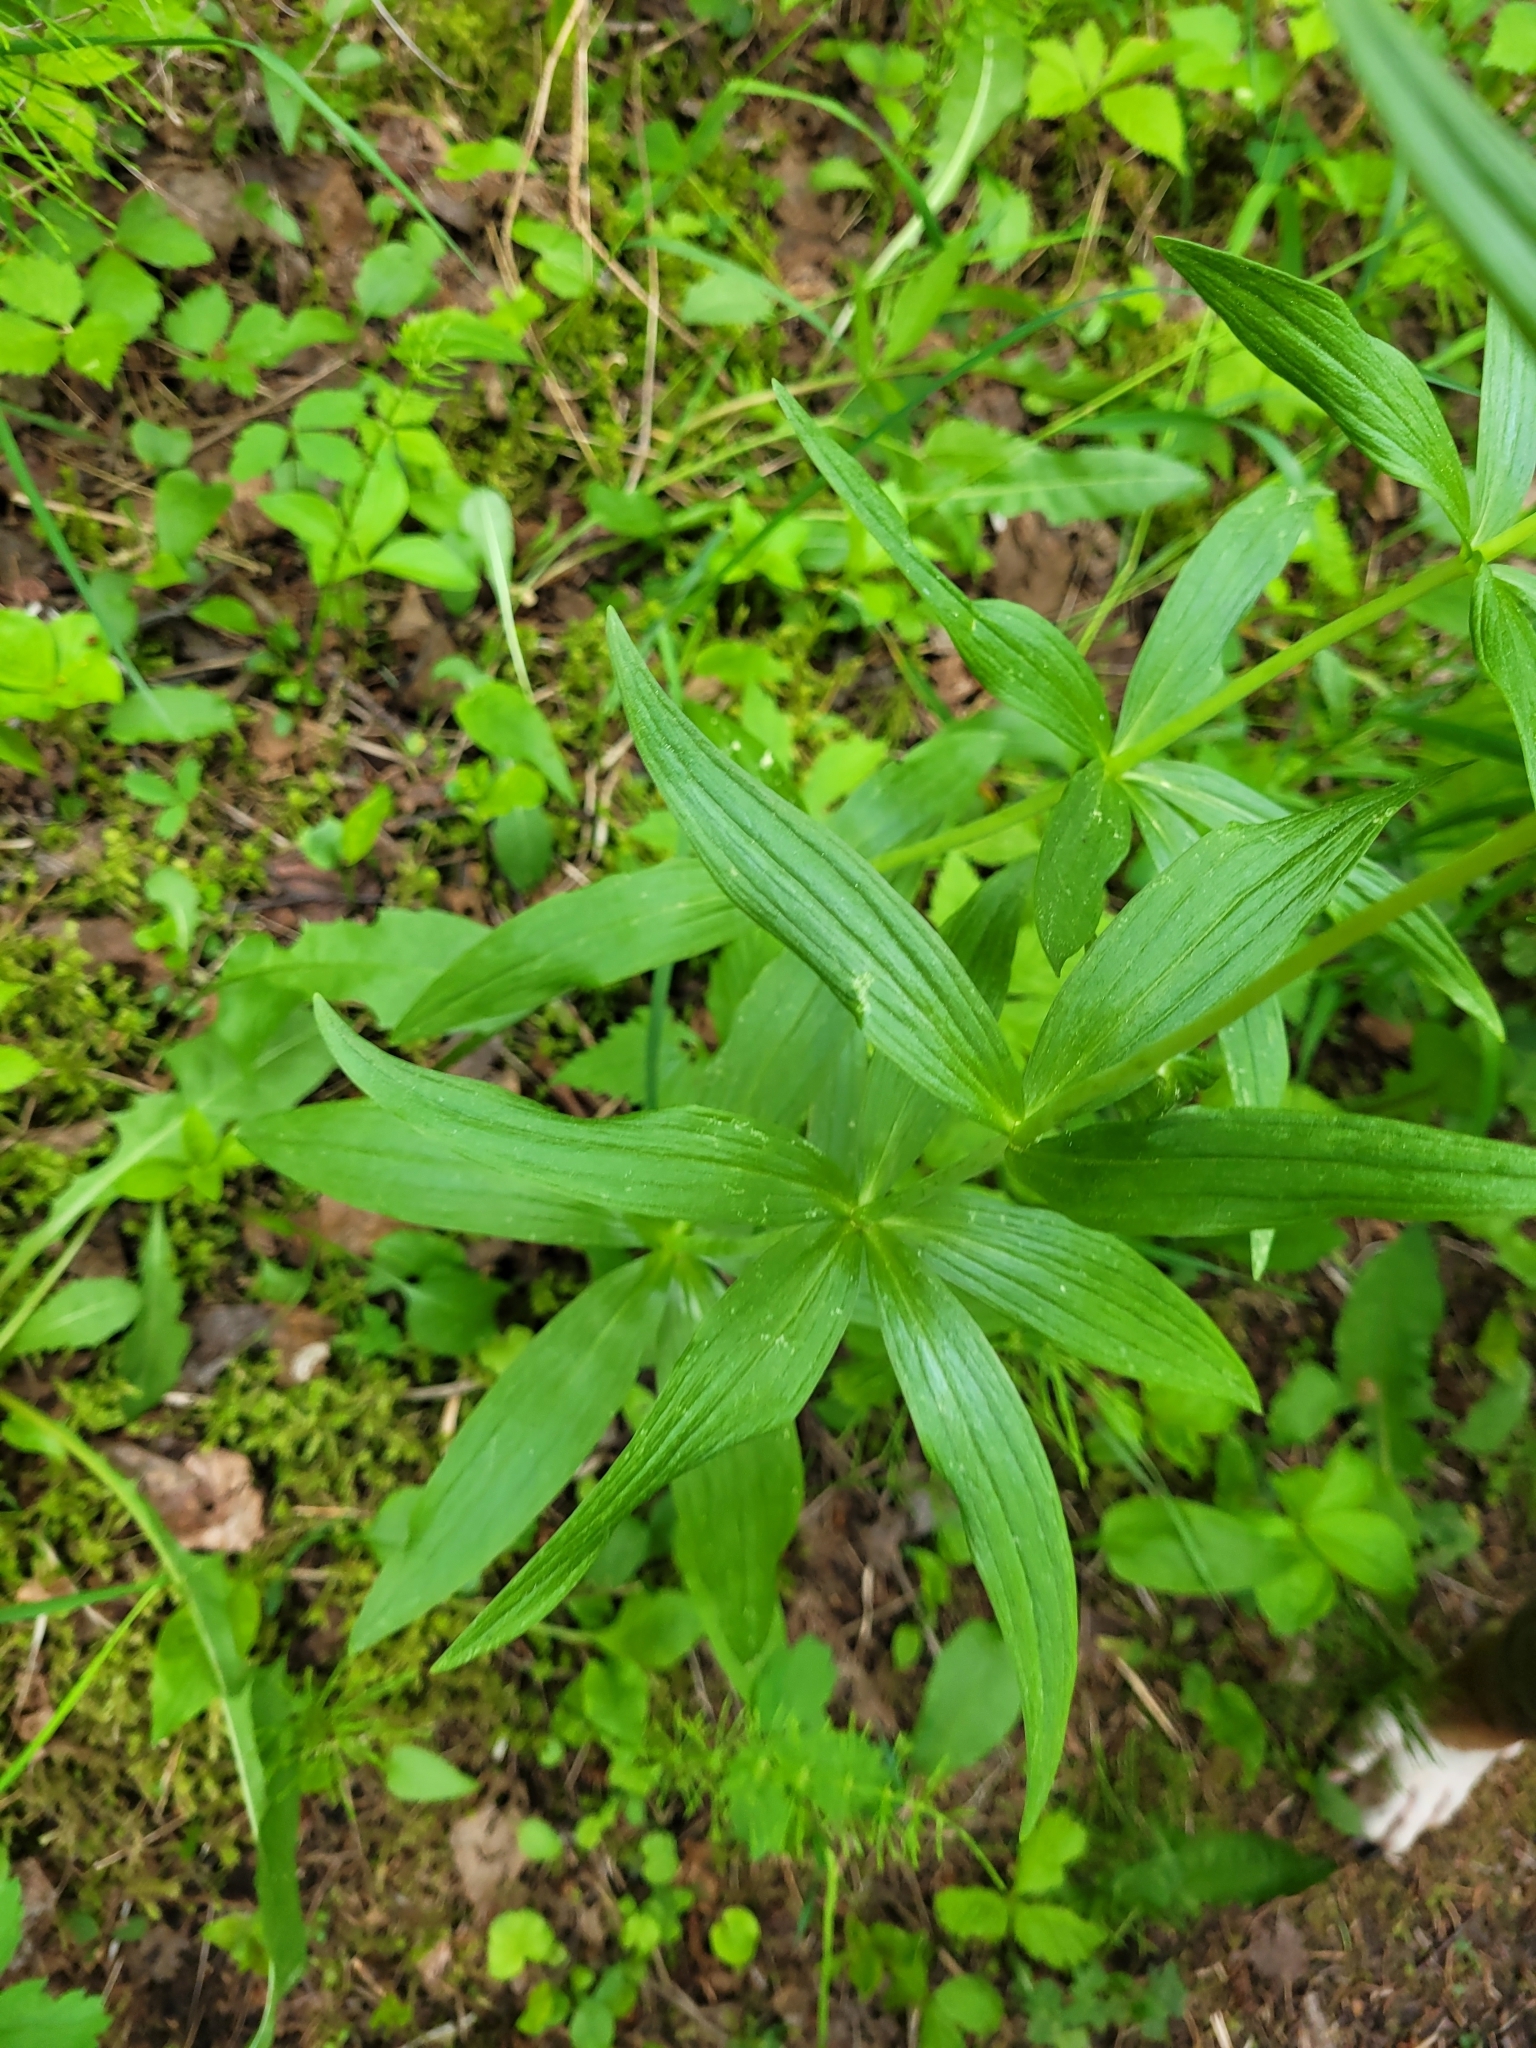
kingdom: Plantae
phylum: Tracheophyta
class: Liliopsida
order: Liliales
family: Liliaceae
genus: Fritillaria
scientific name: Fritillaria camschatcensis
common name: Kamchatka fritillary
